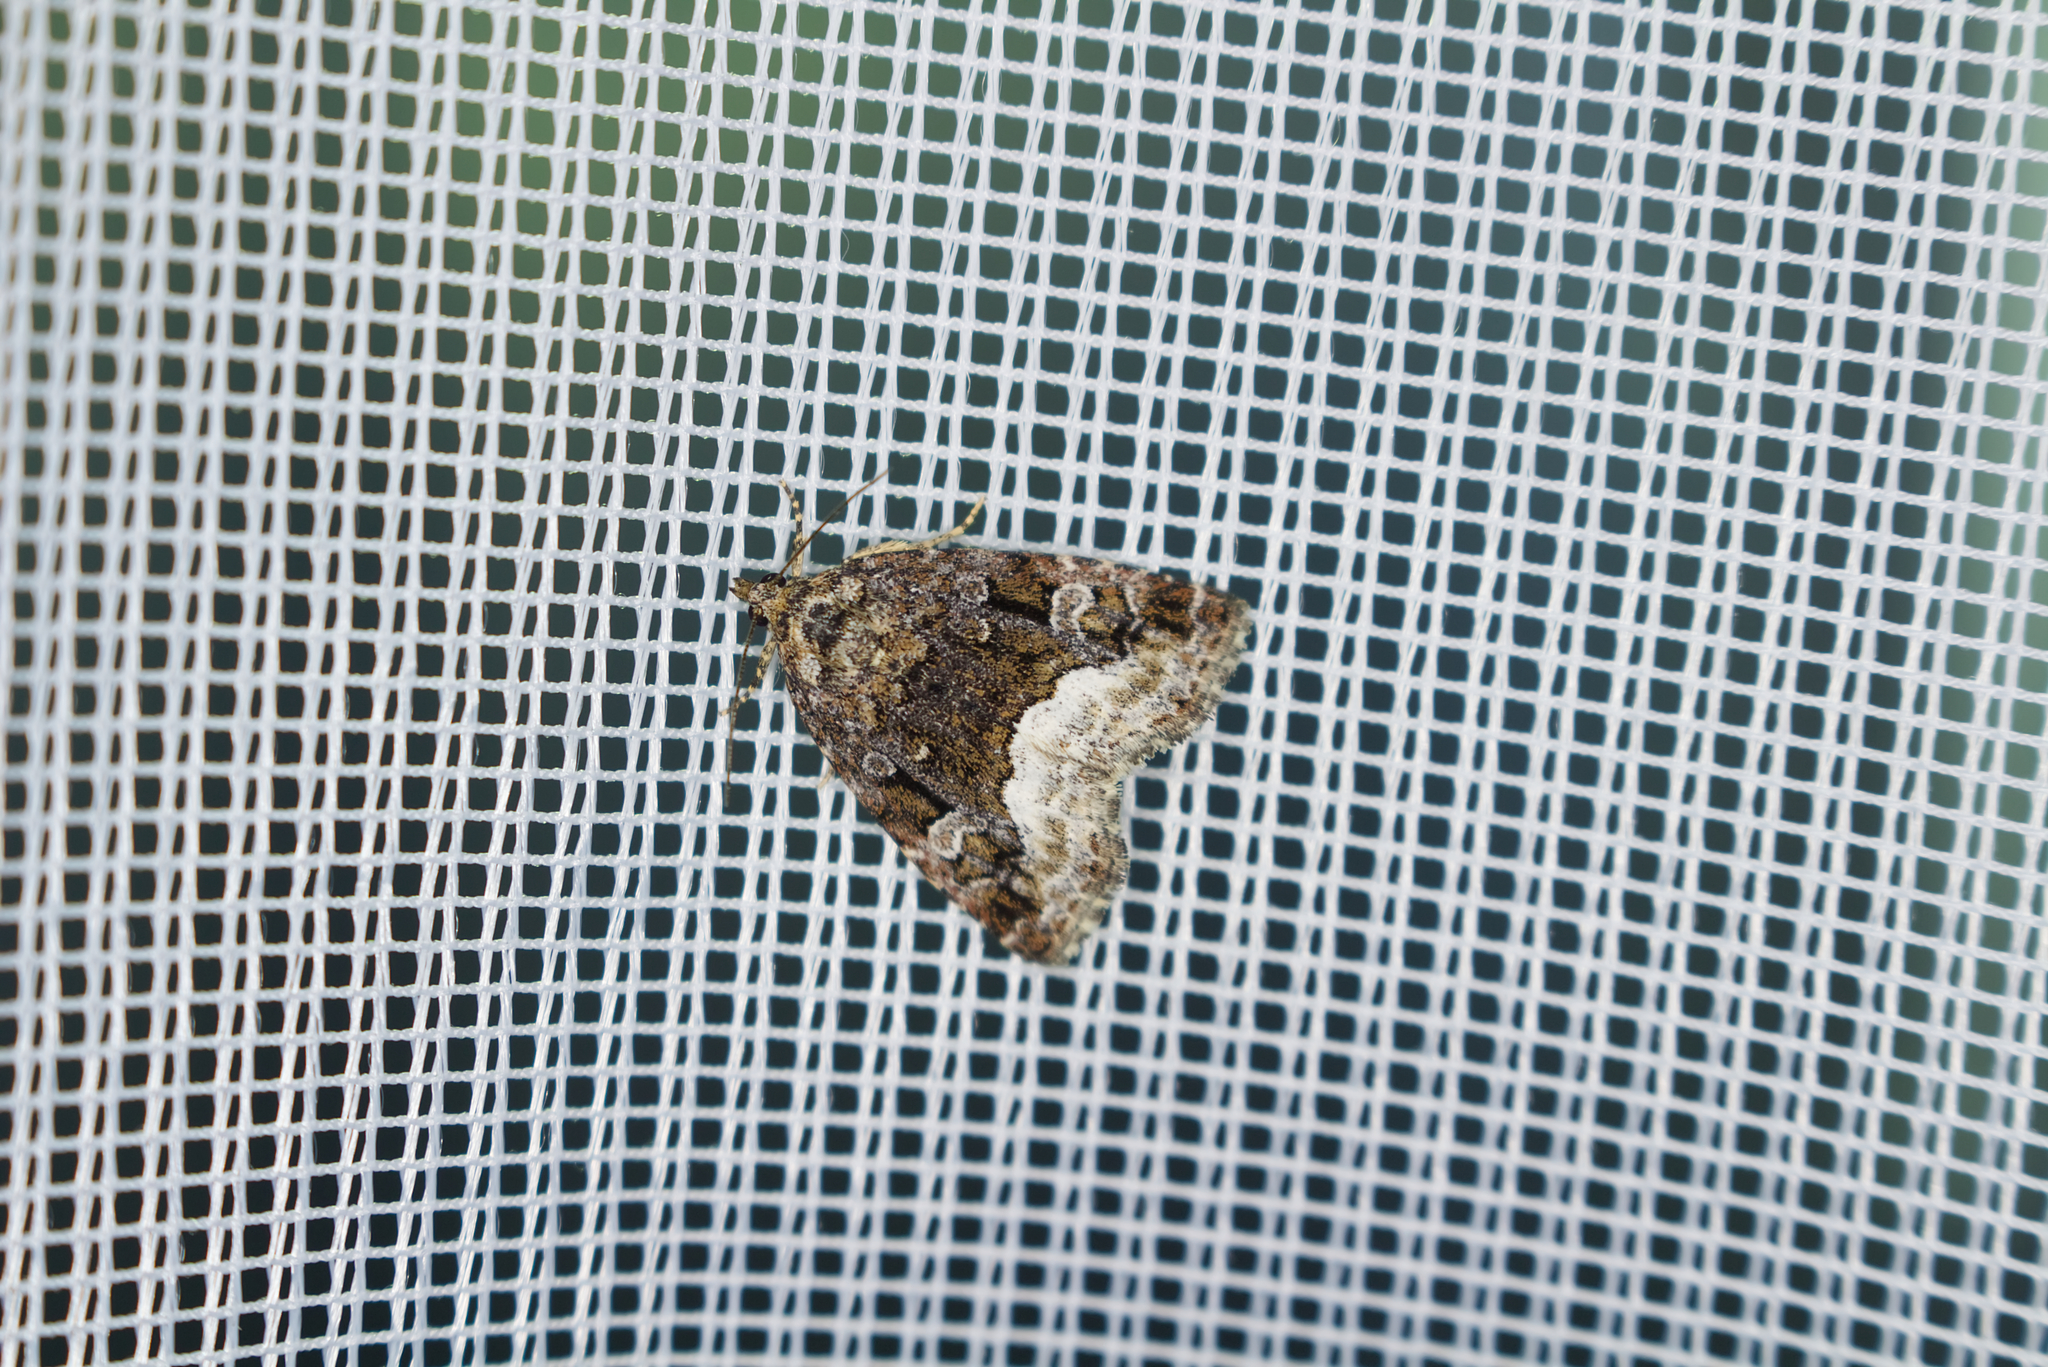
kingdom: Animalia
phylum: Arthropoda
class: Insecta
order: Lepidoptera
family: Noctuidae
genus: Deltote
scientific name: Deltote pygarga
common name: Marbled white spot
